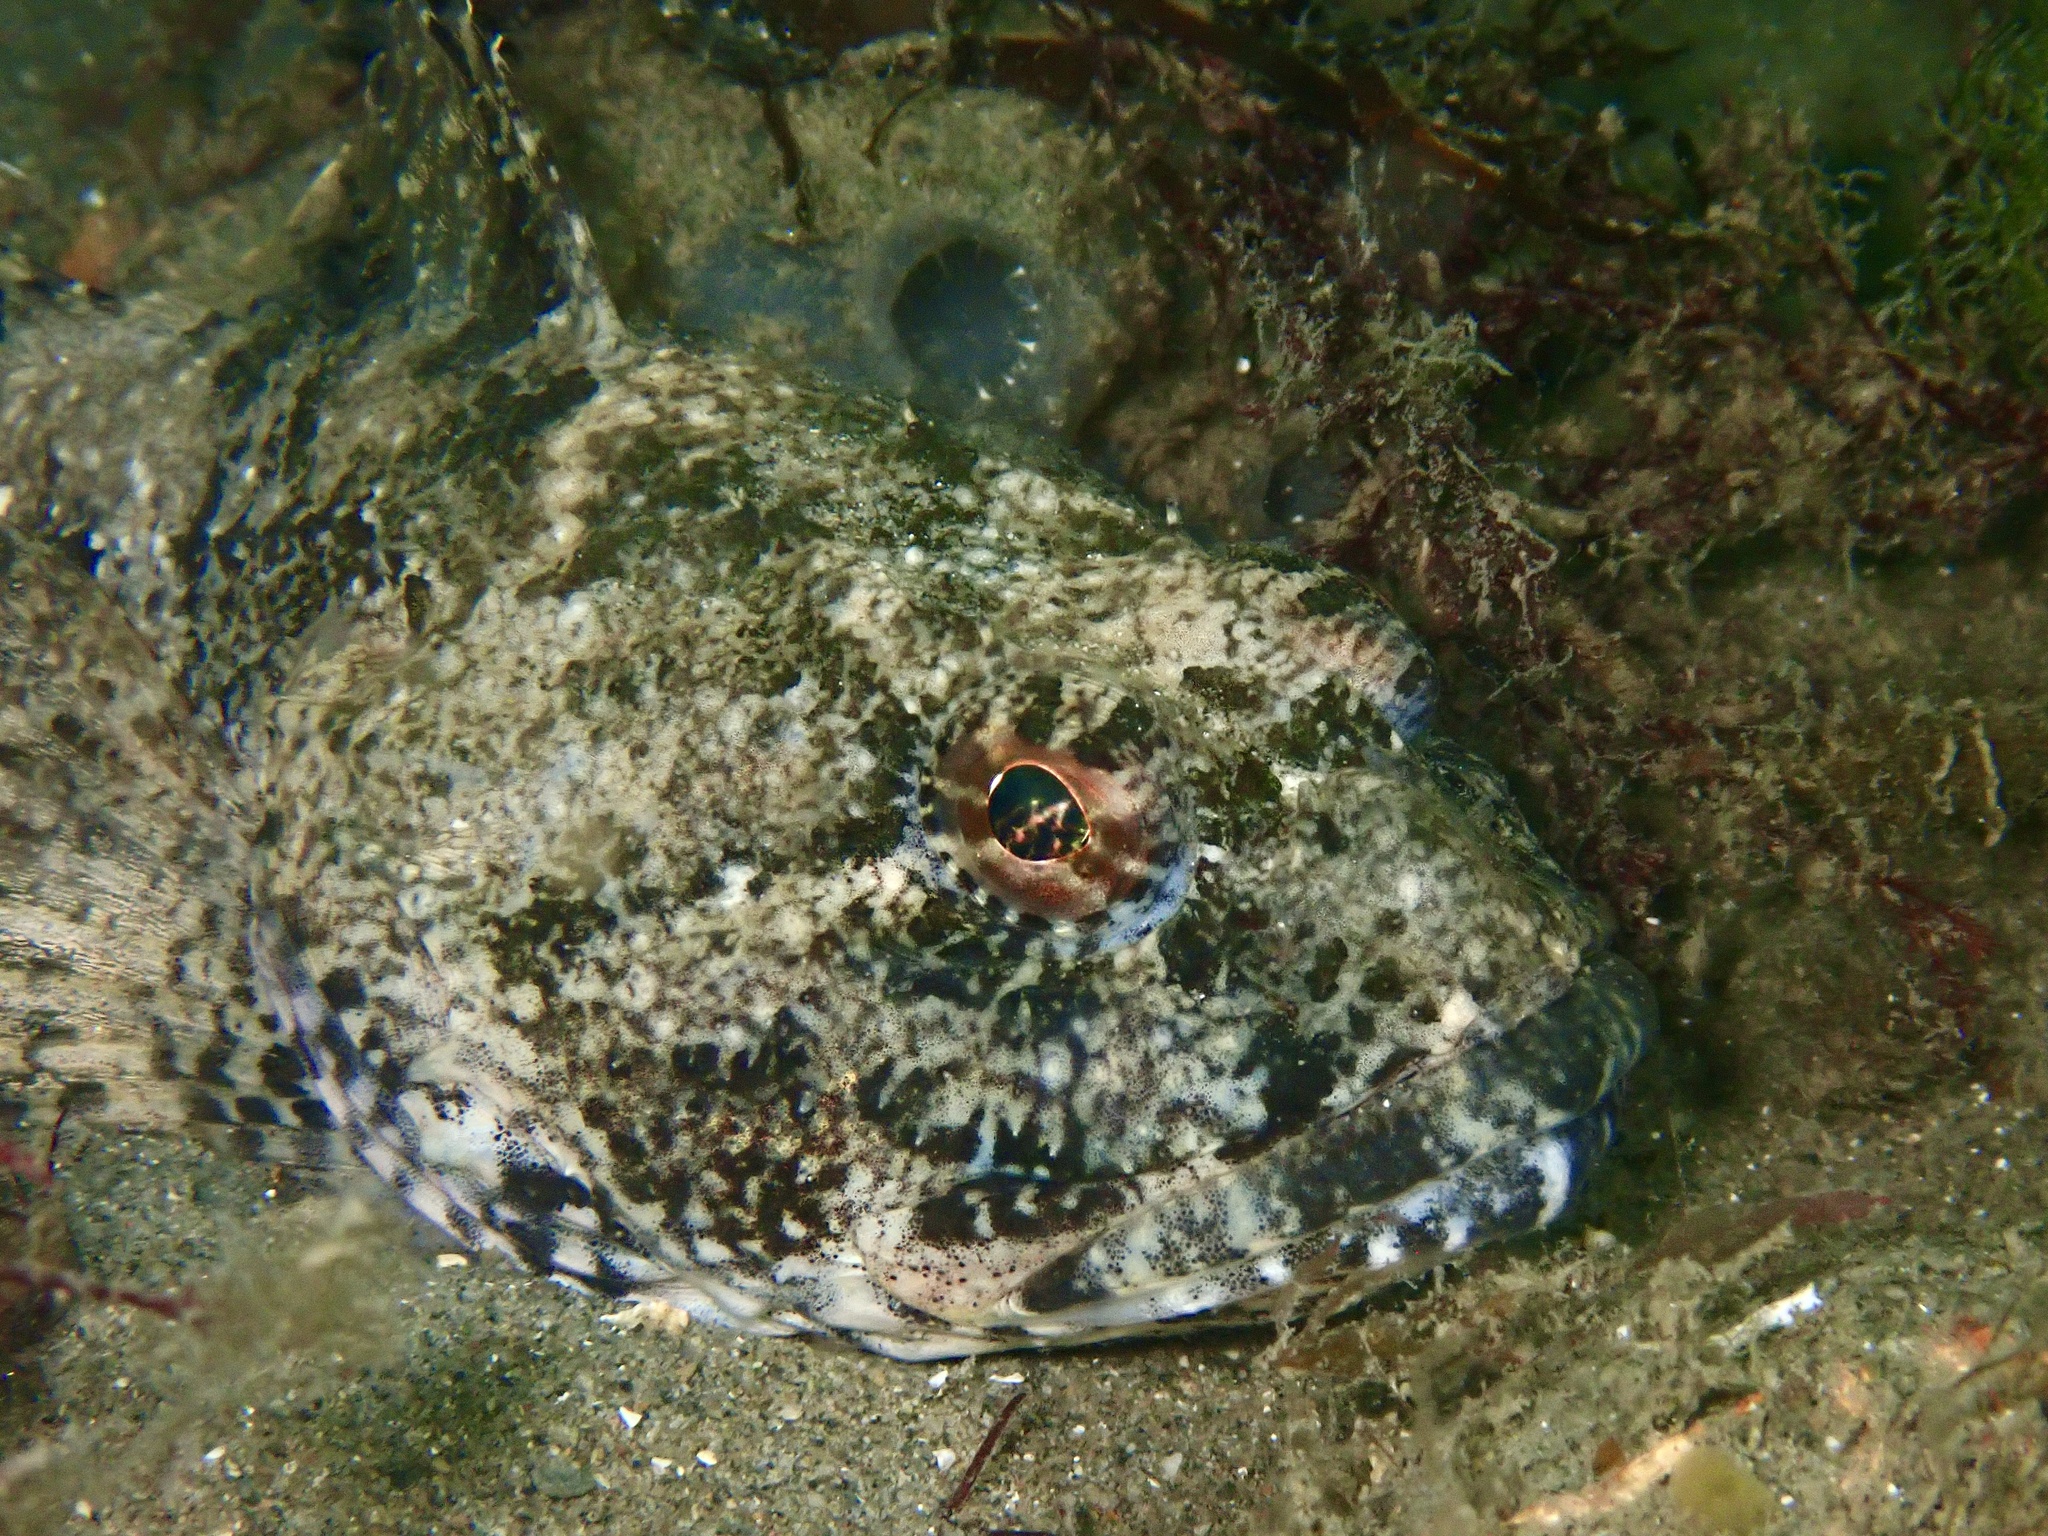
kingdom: Animalia
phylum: Chordata
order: Scorpaeniformes
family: Cottidae
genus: Myoxocephalus
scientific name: Myoxocephalus scorpius
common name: Shorthorn sculpin
